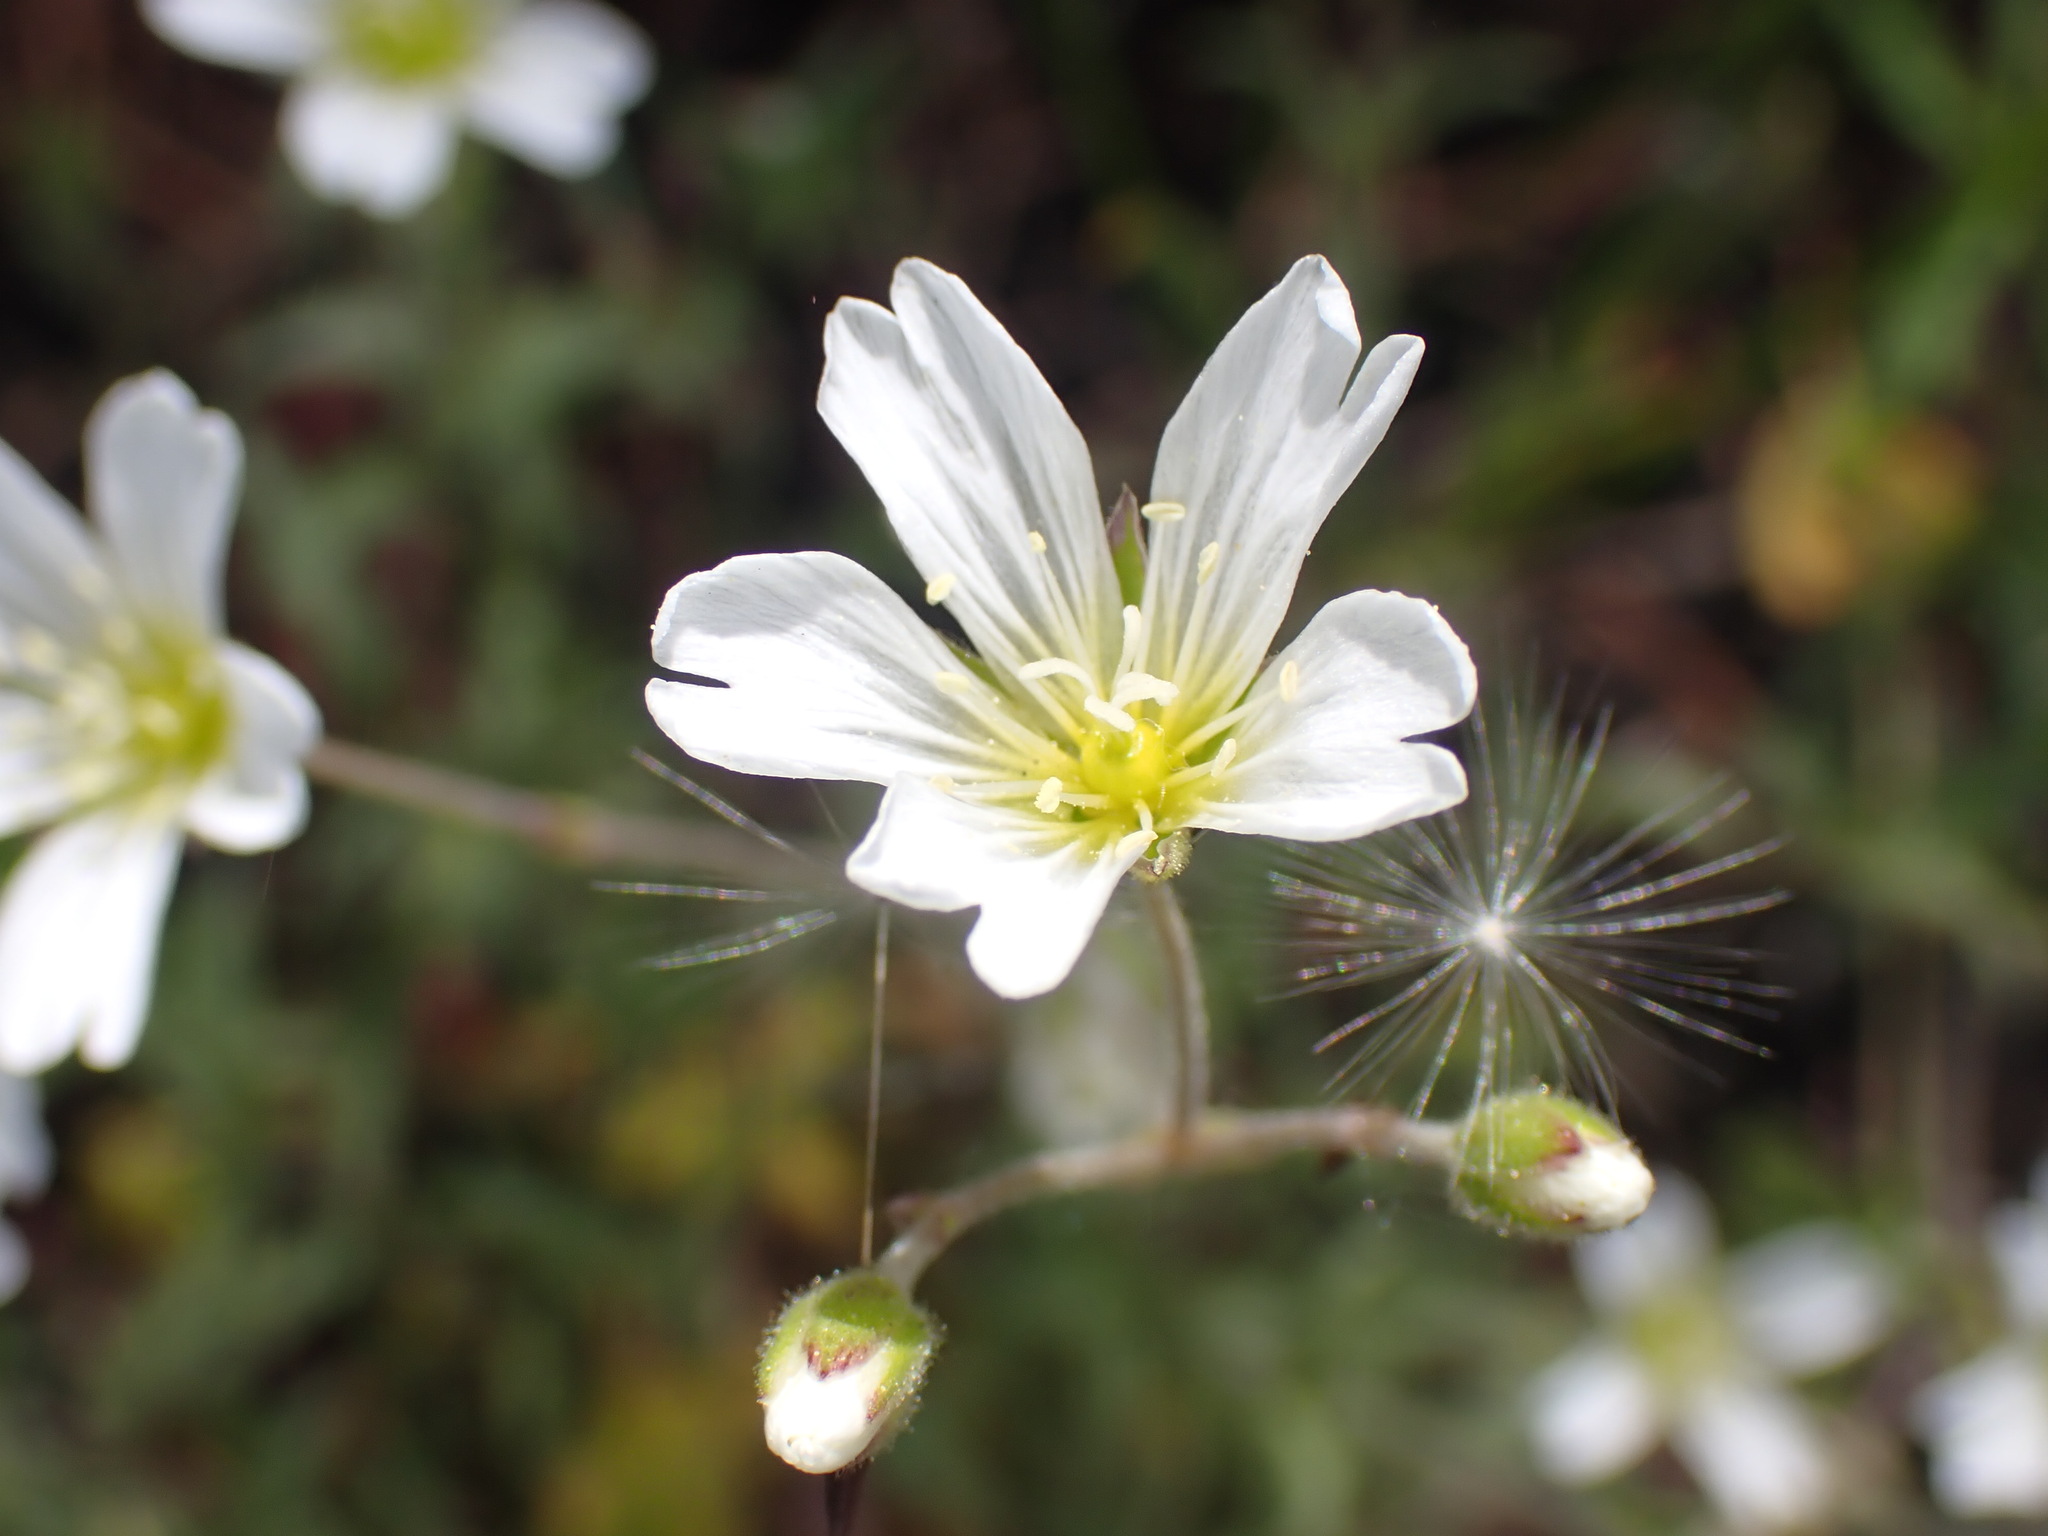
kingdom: Plantae
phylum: Tracheophyta
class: Magnoliopsida
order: Caryophyllales
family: Caryophyllaceae
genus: Cerastium
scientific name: Cerastium arvense
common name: Field mouse-ear
